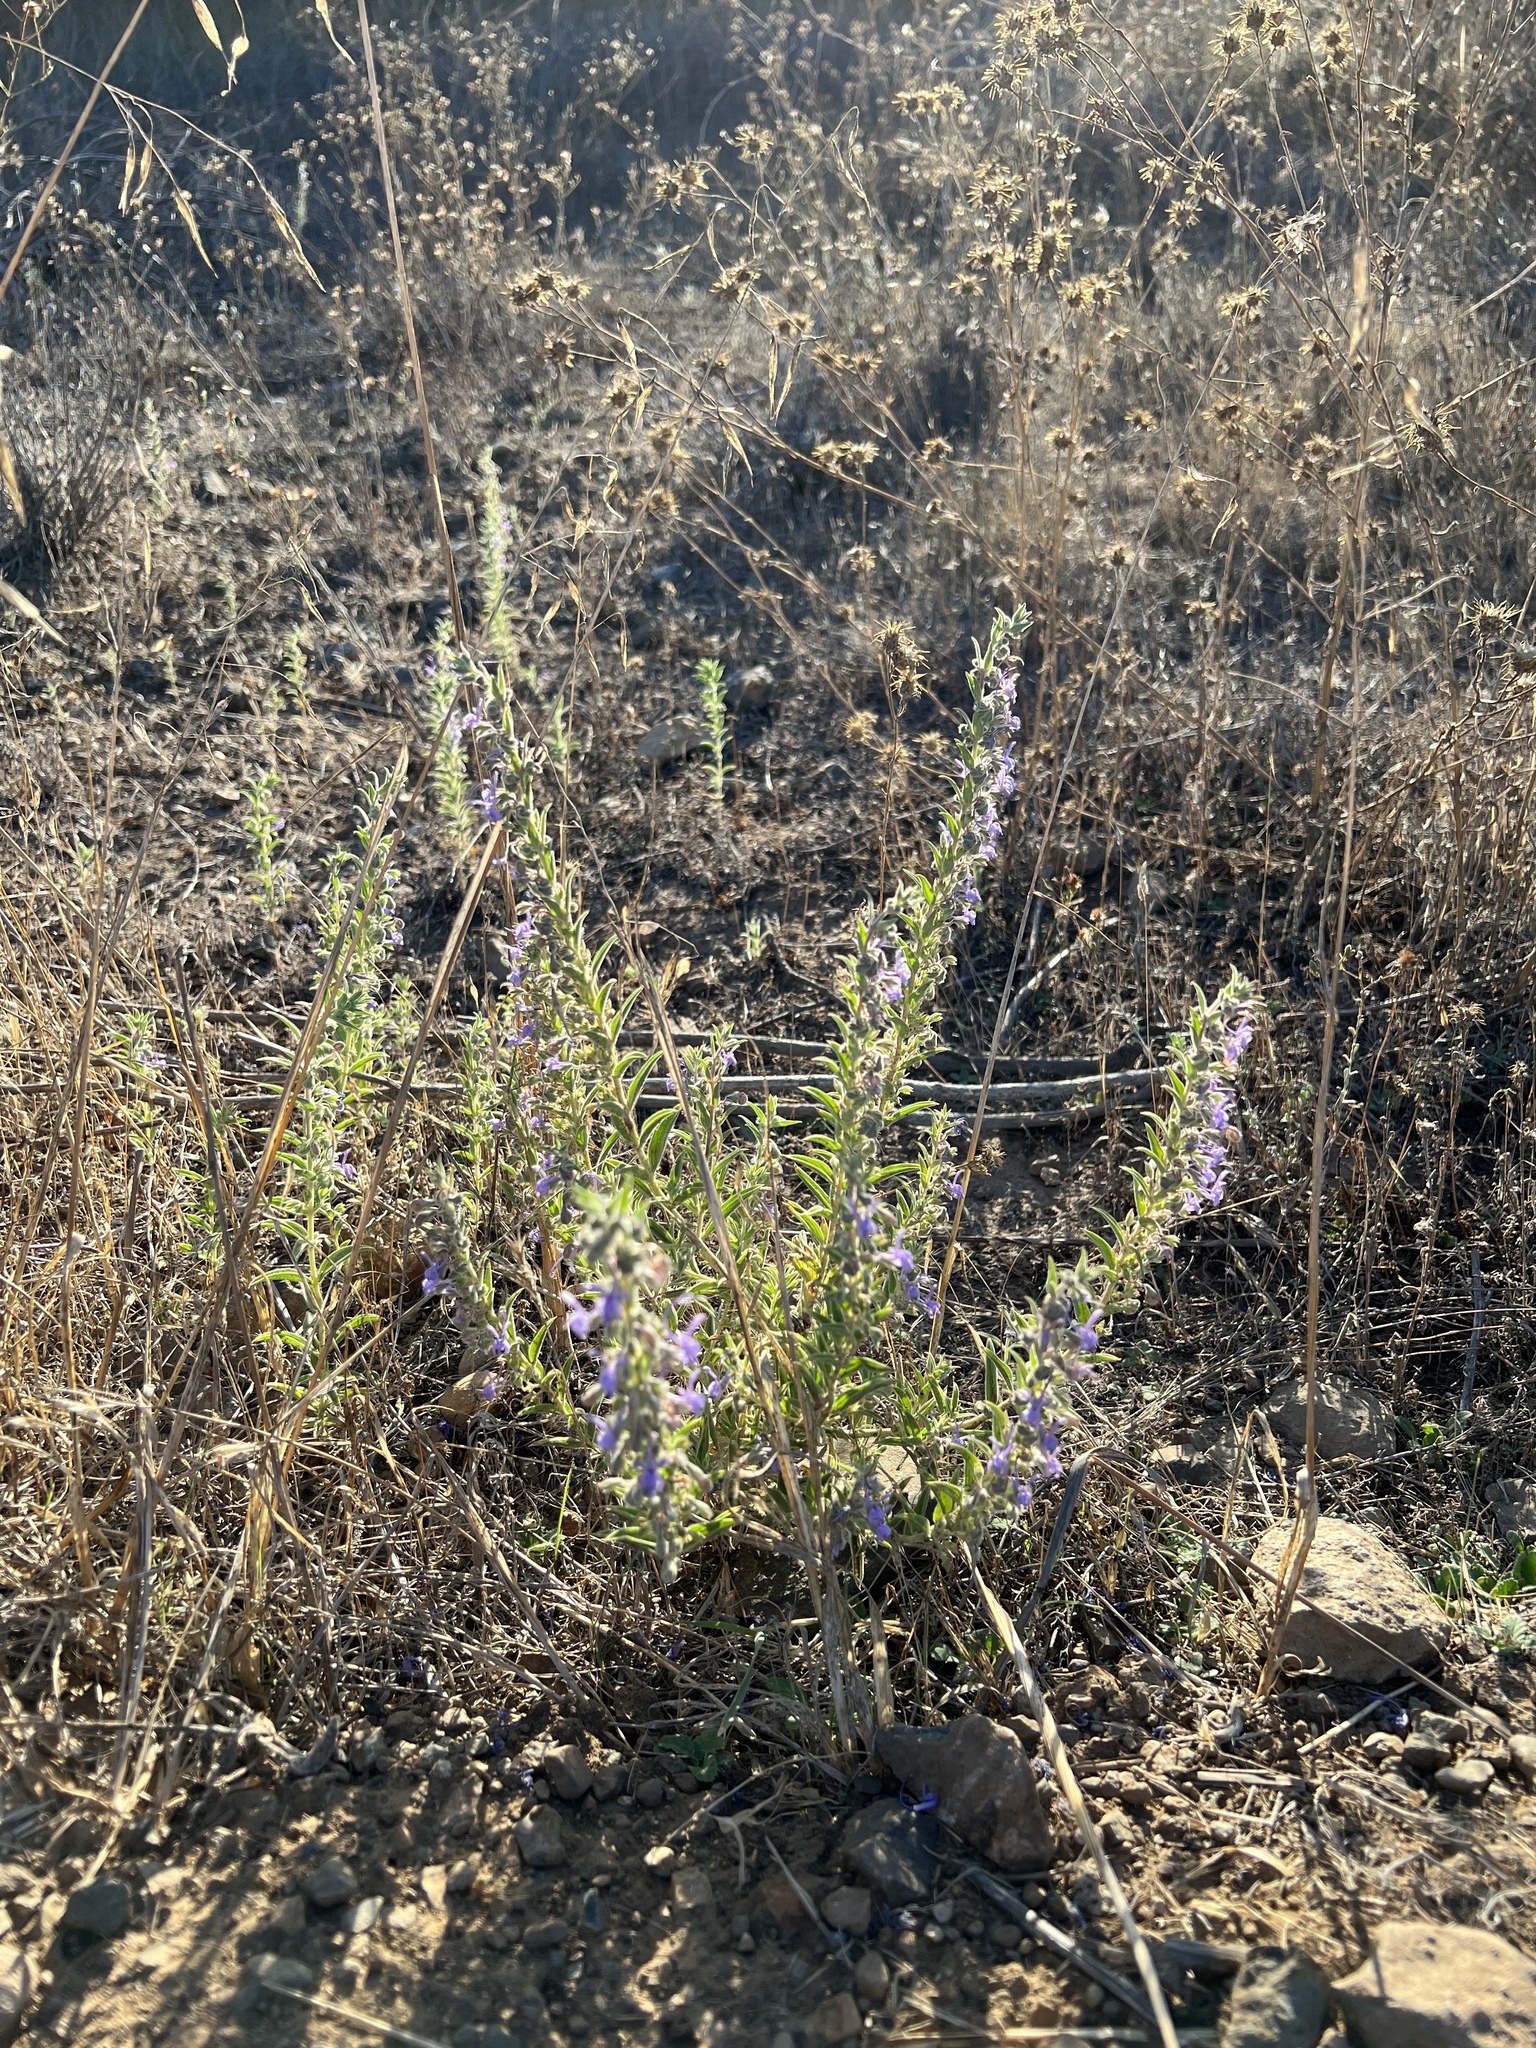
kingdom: Plantae
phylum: Tracheophyta
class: Magnoliopsida
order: Lamiales
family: Lamiaceae
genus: Trichostema
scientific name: Trichostema lanceolatum
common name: Vinegar-weed
